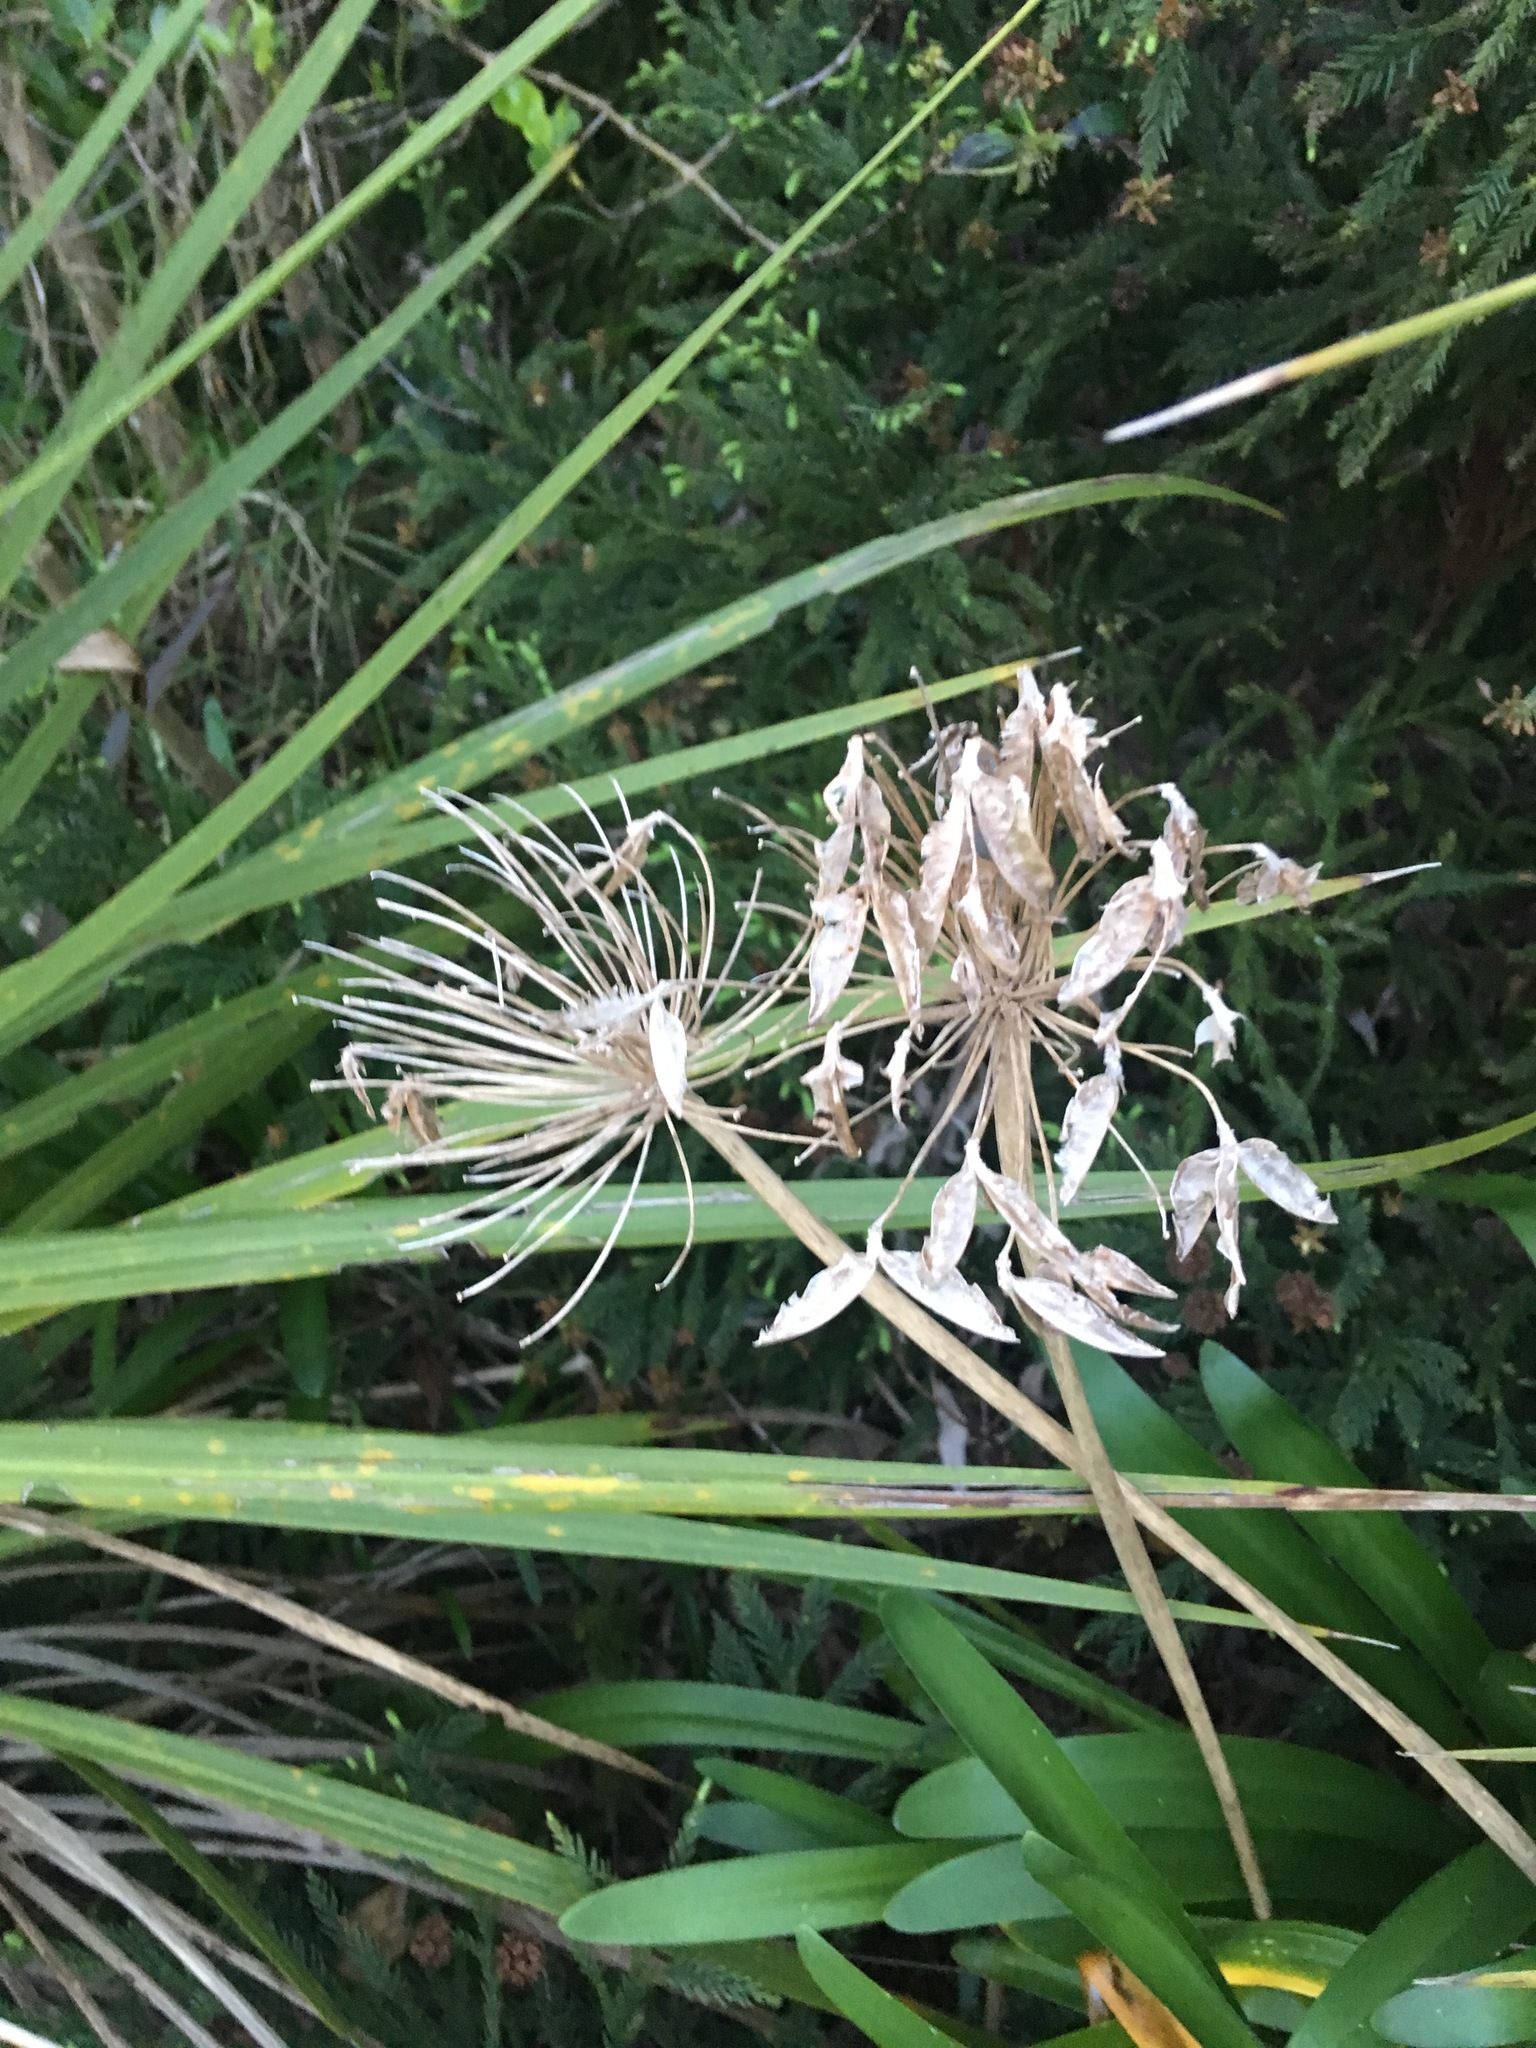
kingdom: Plantae
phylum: Tracheophyta
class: Liliopsida
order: Asparagales
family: Amaryllidaceae
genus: Agapanthus
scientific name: Agapanthus praecox
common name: African-lily
